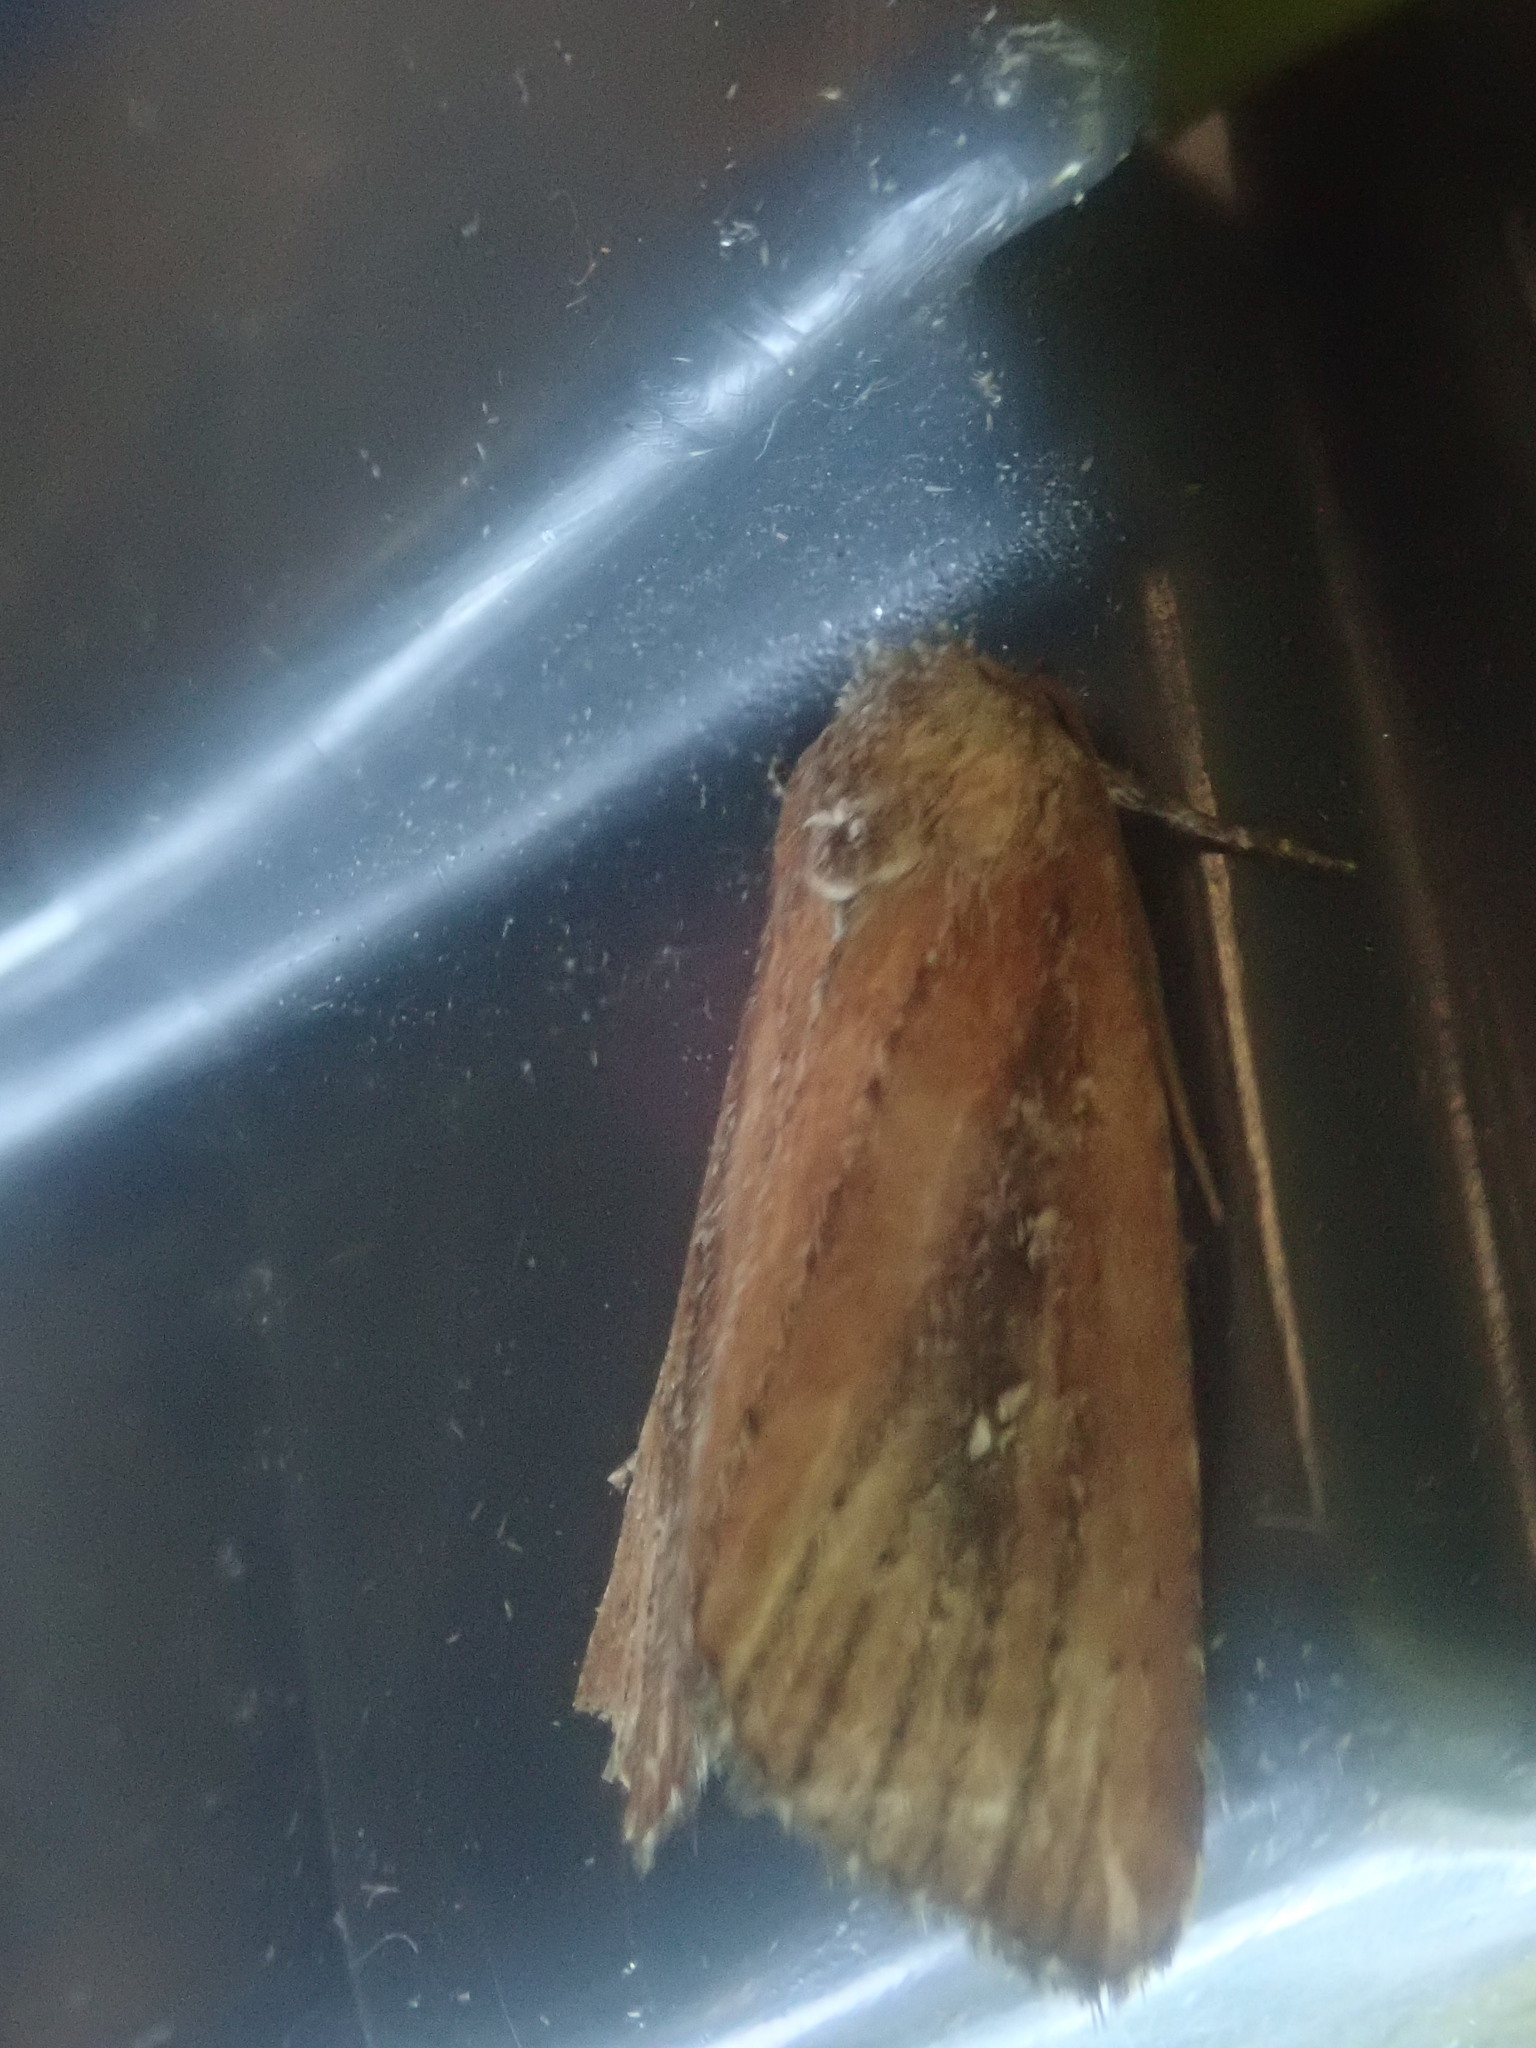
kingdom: Animalia
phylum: Arthropoda
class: Insecta
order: Lepidoptera
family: Noctuidae
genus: Condica
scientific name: Condica videns
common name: White-dotted groundling
